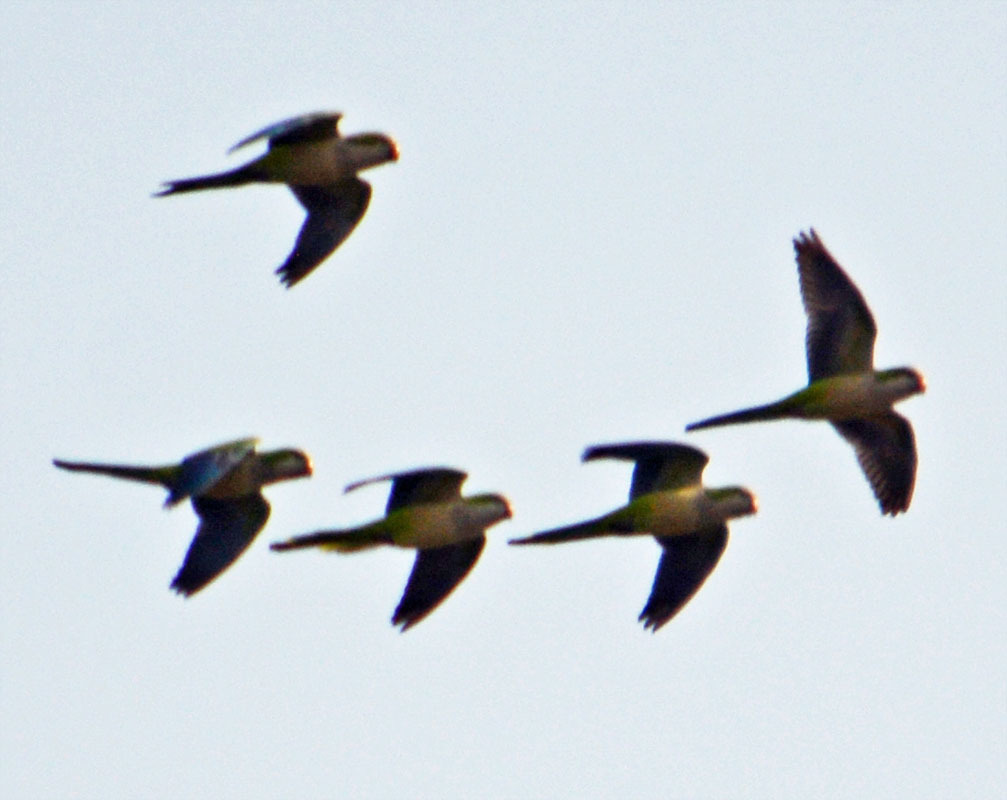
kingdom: Animalia
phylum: Chordata
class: Aves
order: Psittaciformes
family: Psittacidae
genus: Myiopsitta
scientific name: Myiopsitta monachus
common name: Monk parakeet
